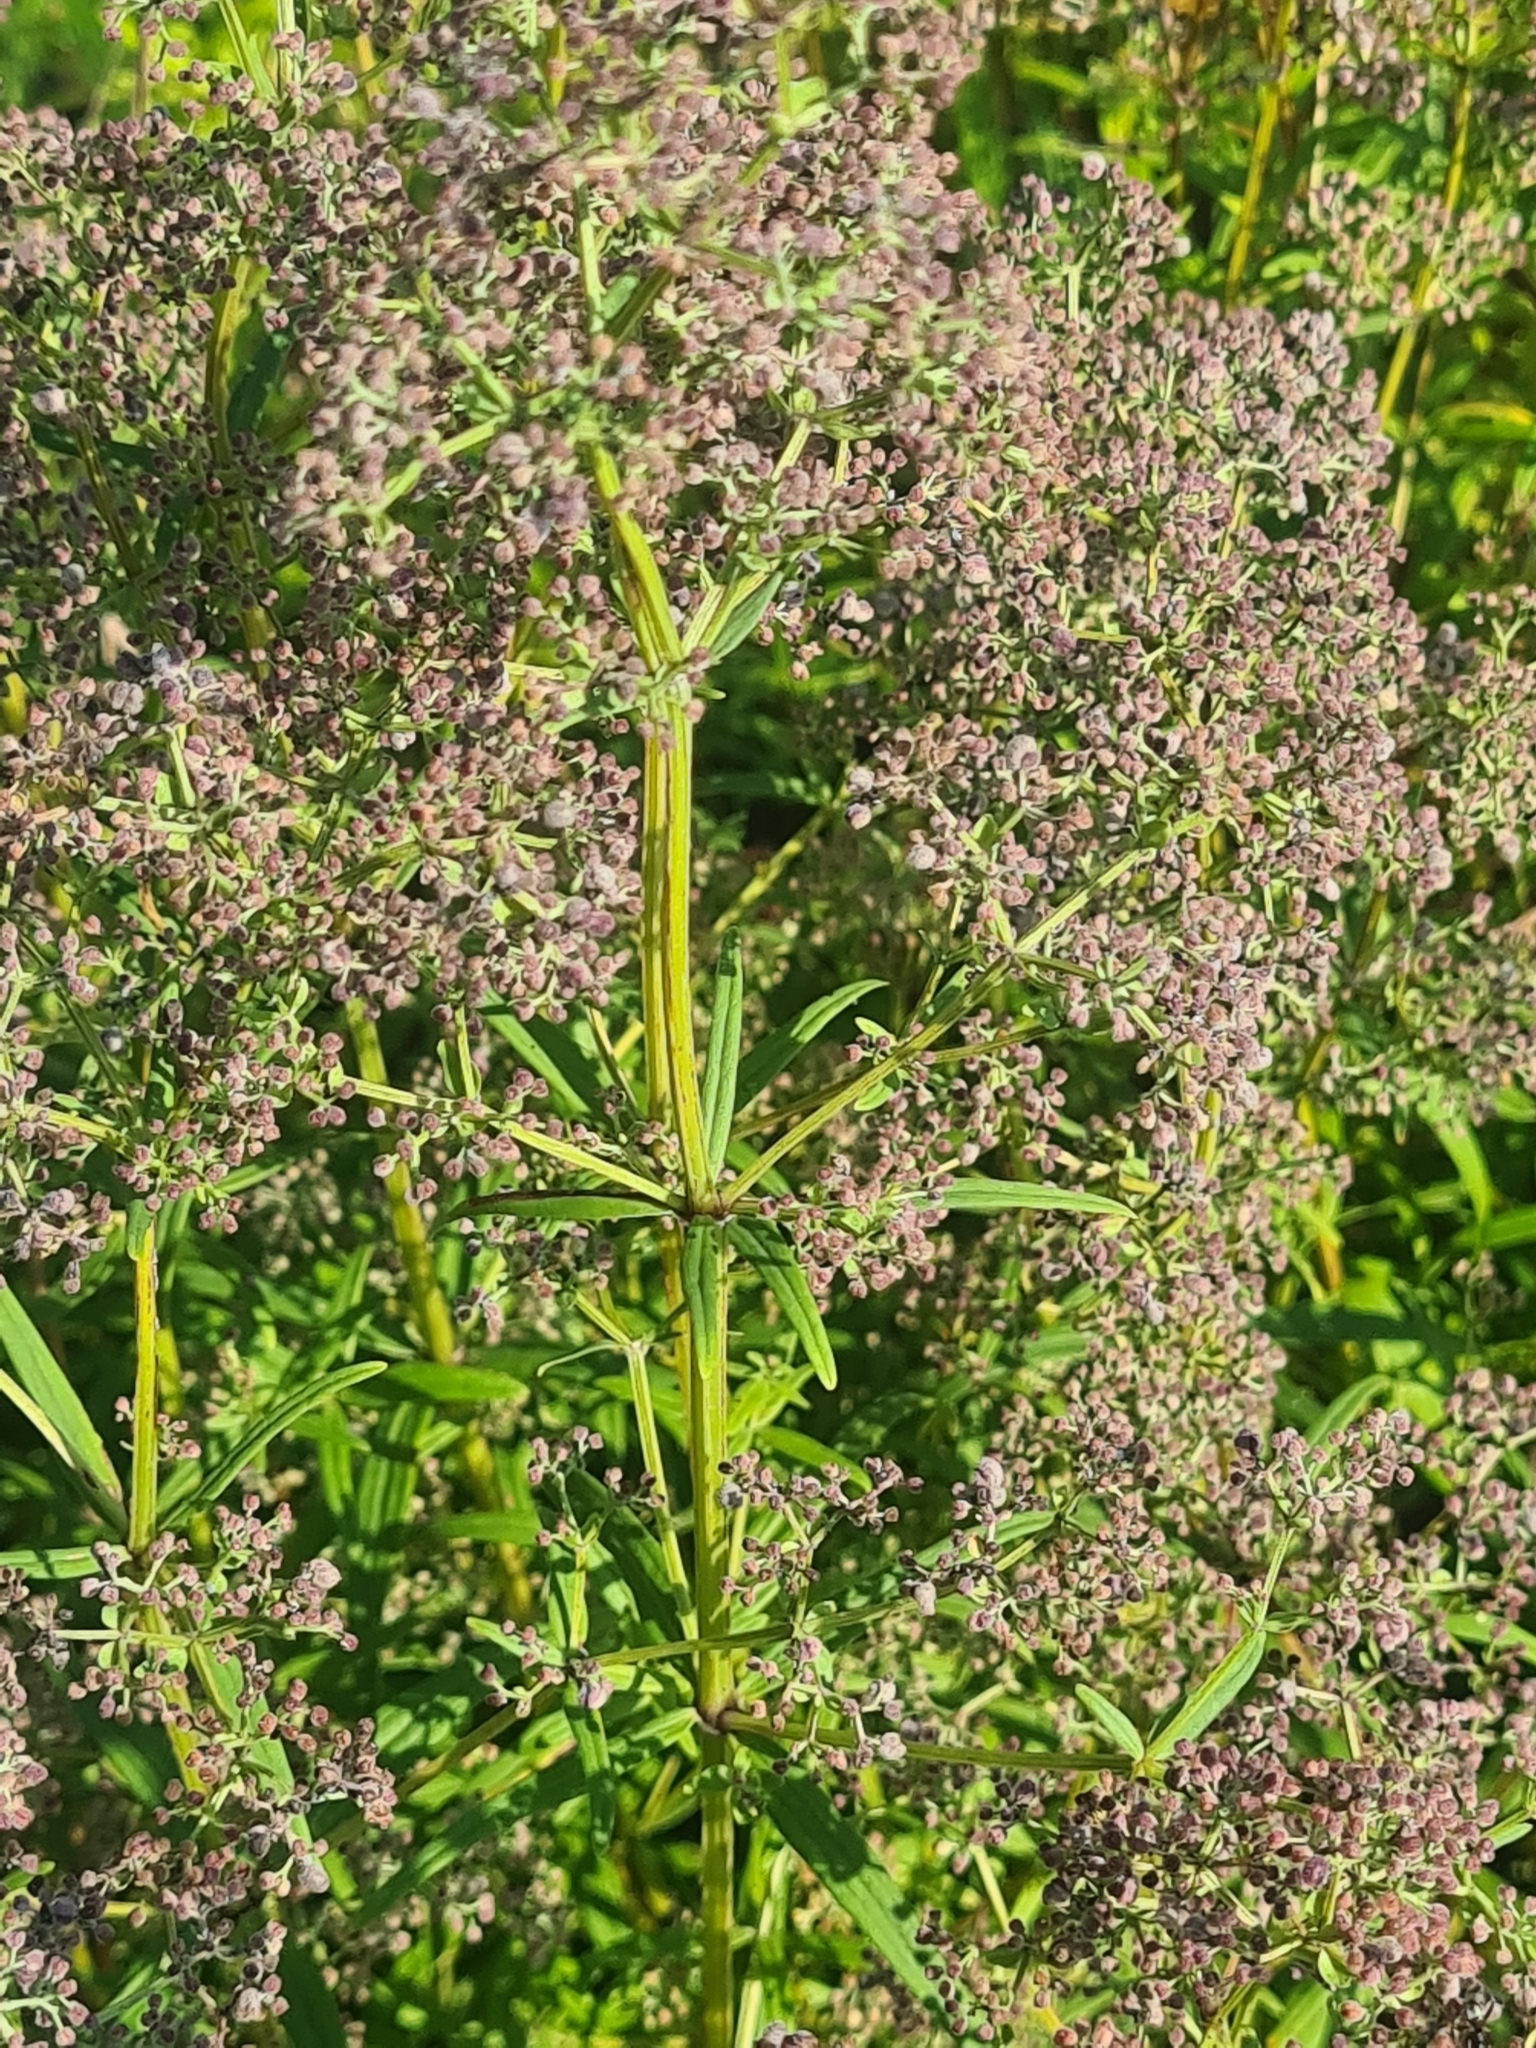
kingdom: Plantae
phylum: Tracheophyta
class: Magnoliopsida
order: Gentianales
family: Rubiaceae
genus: Galium
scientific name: Galium boreale
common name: Northern bedstraw
